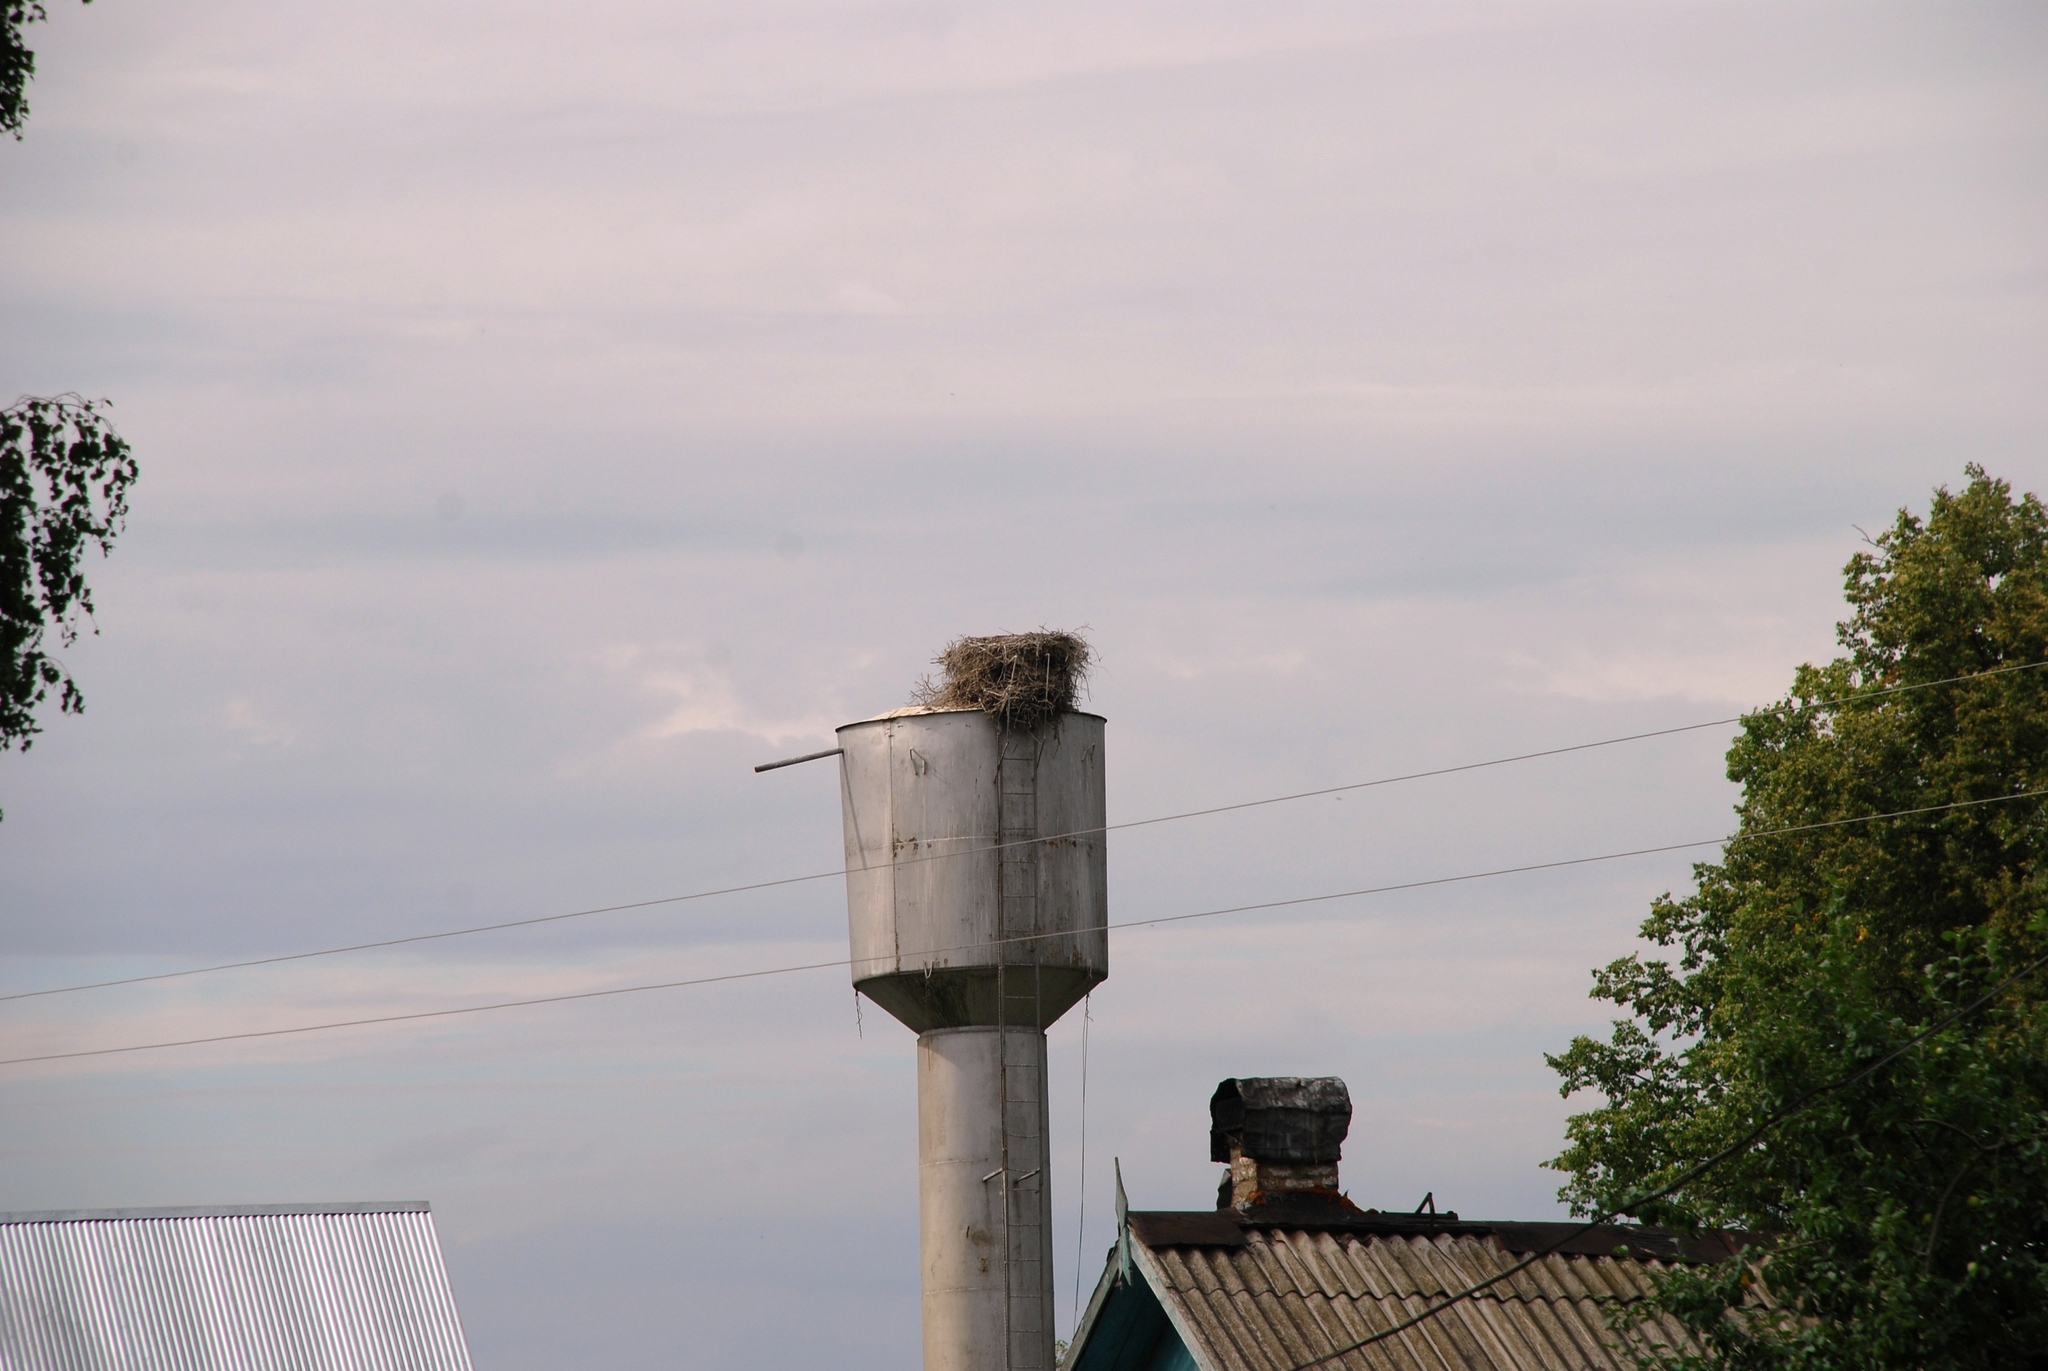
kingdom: Animalia
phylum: Chordata
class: Aves
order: Ciconiiformes
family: Ciconiidae
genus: Ciconia
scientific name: Ciconia ciconia
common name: White stork
